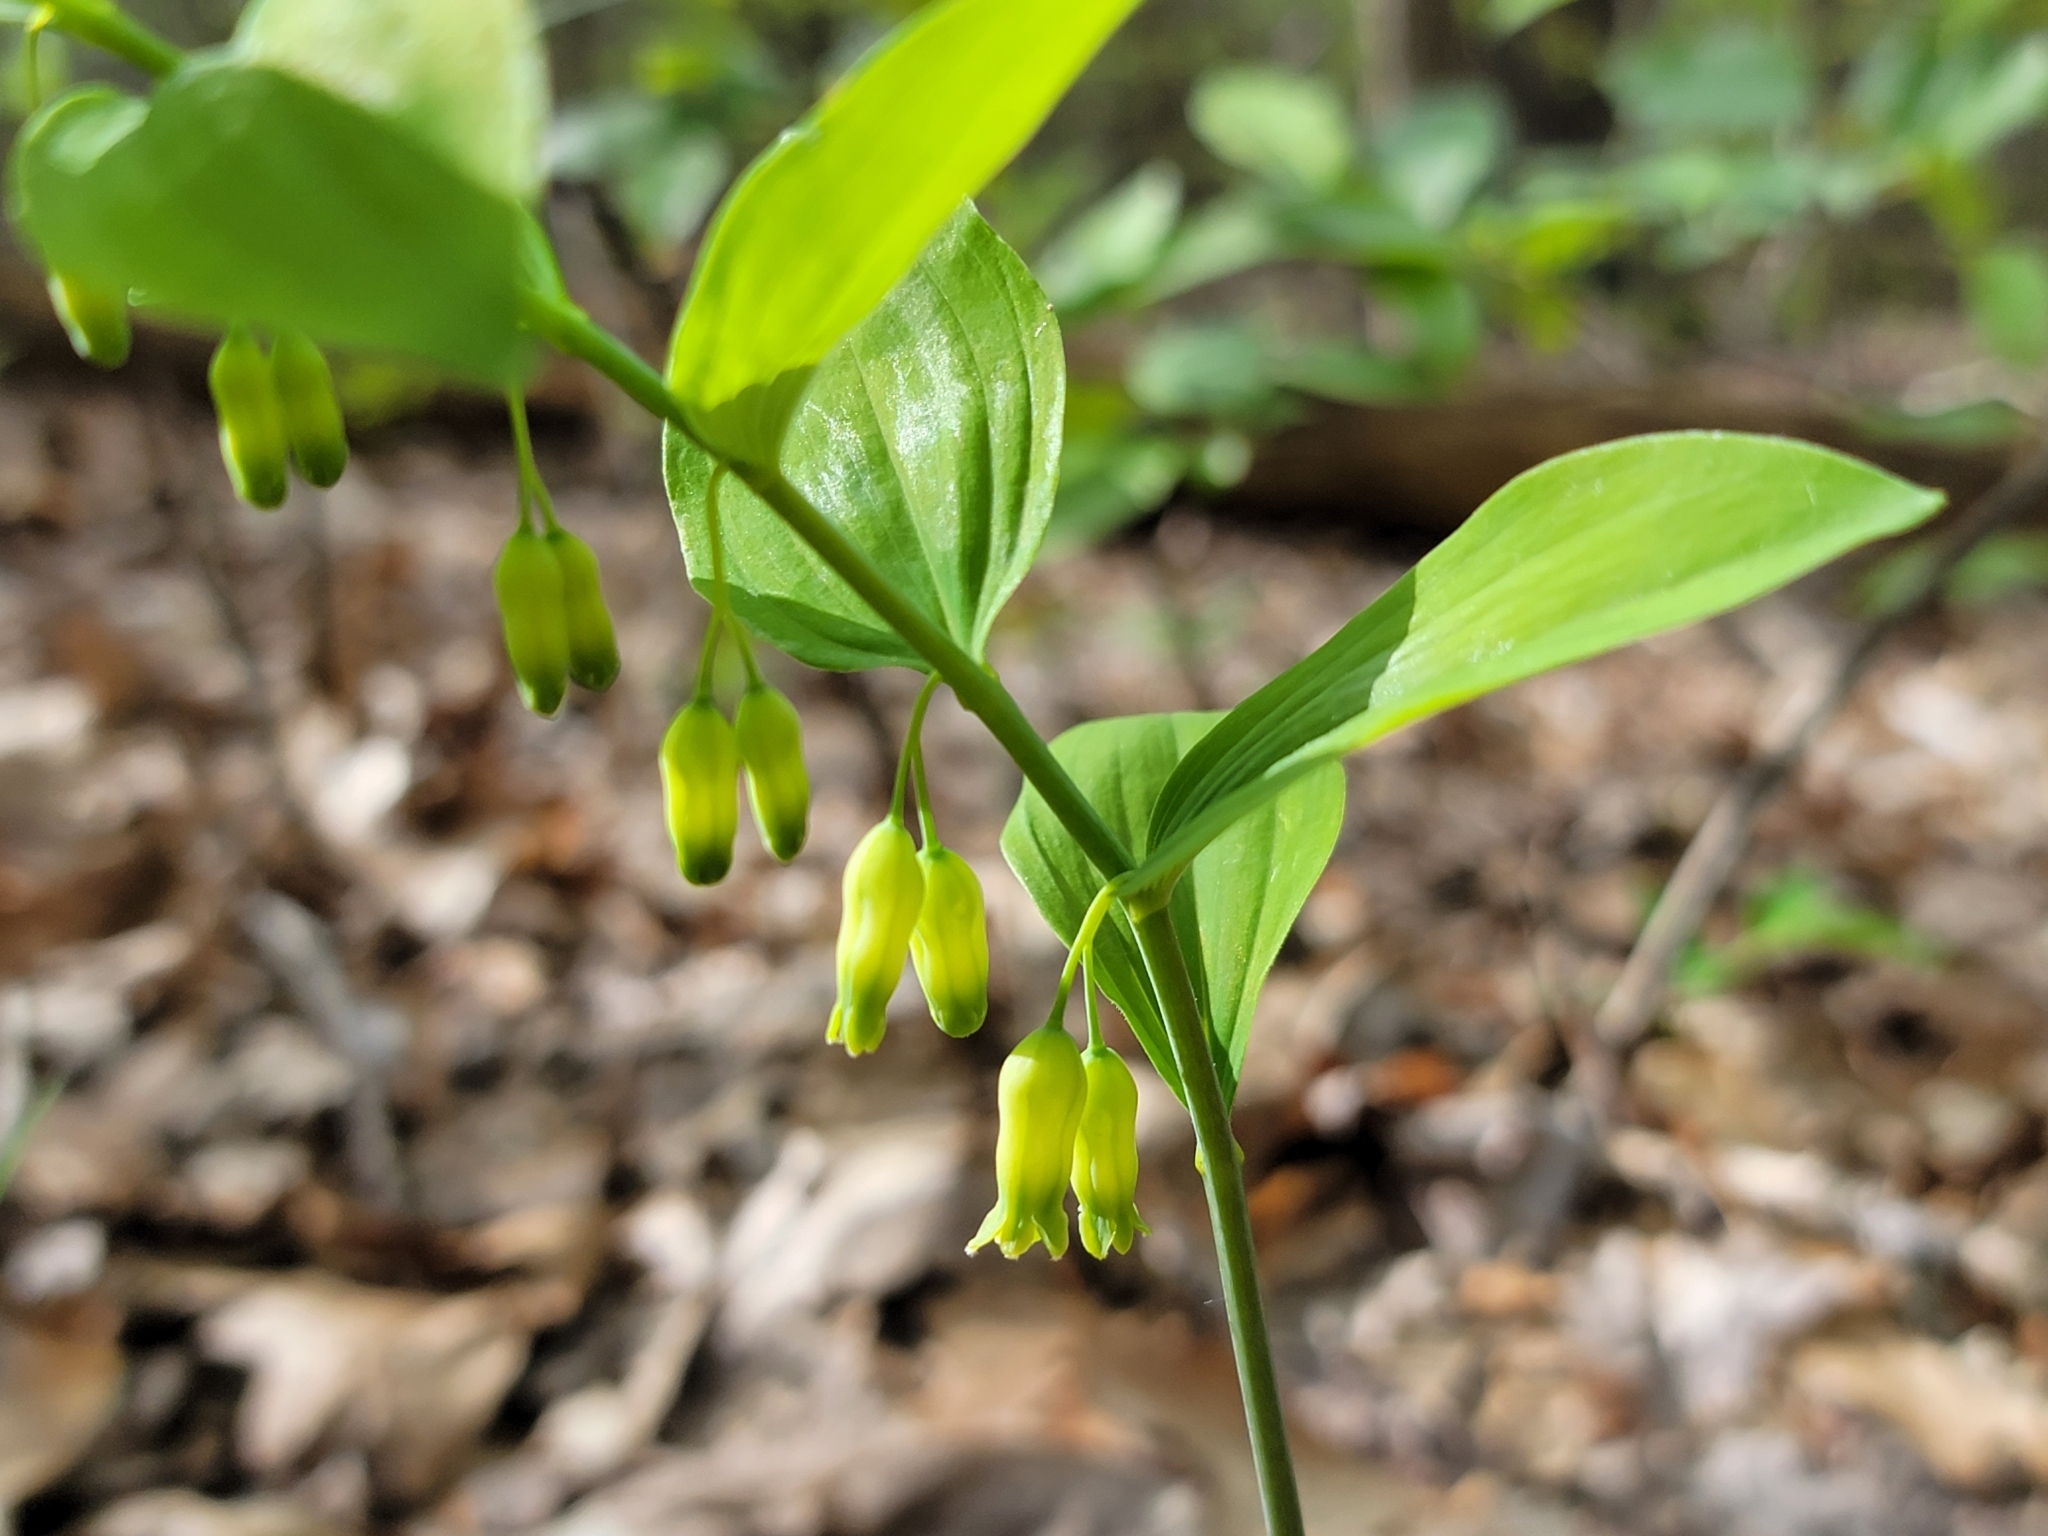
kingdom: Plantae
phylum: Tracheophyta
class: Liliopsida
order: Asparagales
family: Asparagaceae
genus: Polygonatum
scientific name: Polygonatum pubescens
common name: Downy solomon's seal
